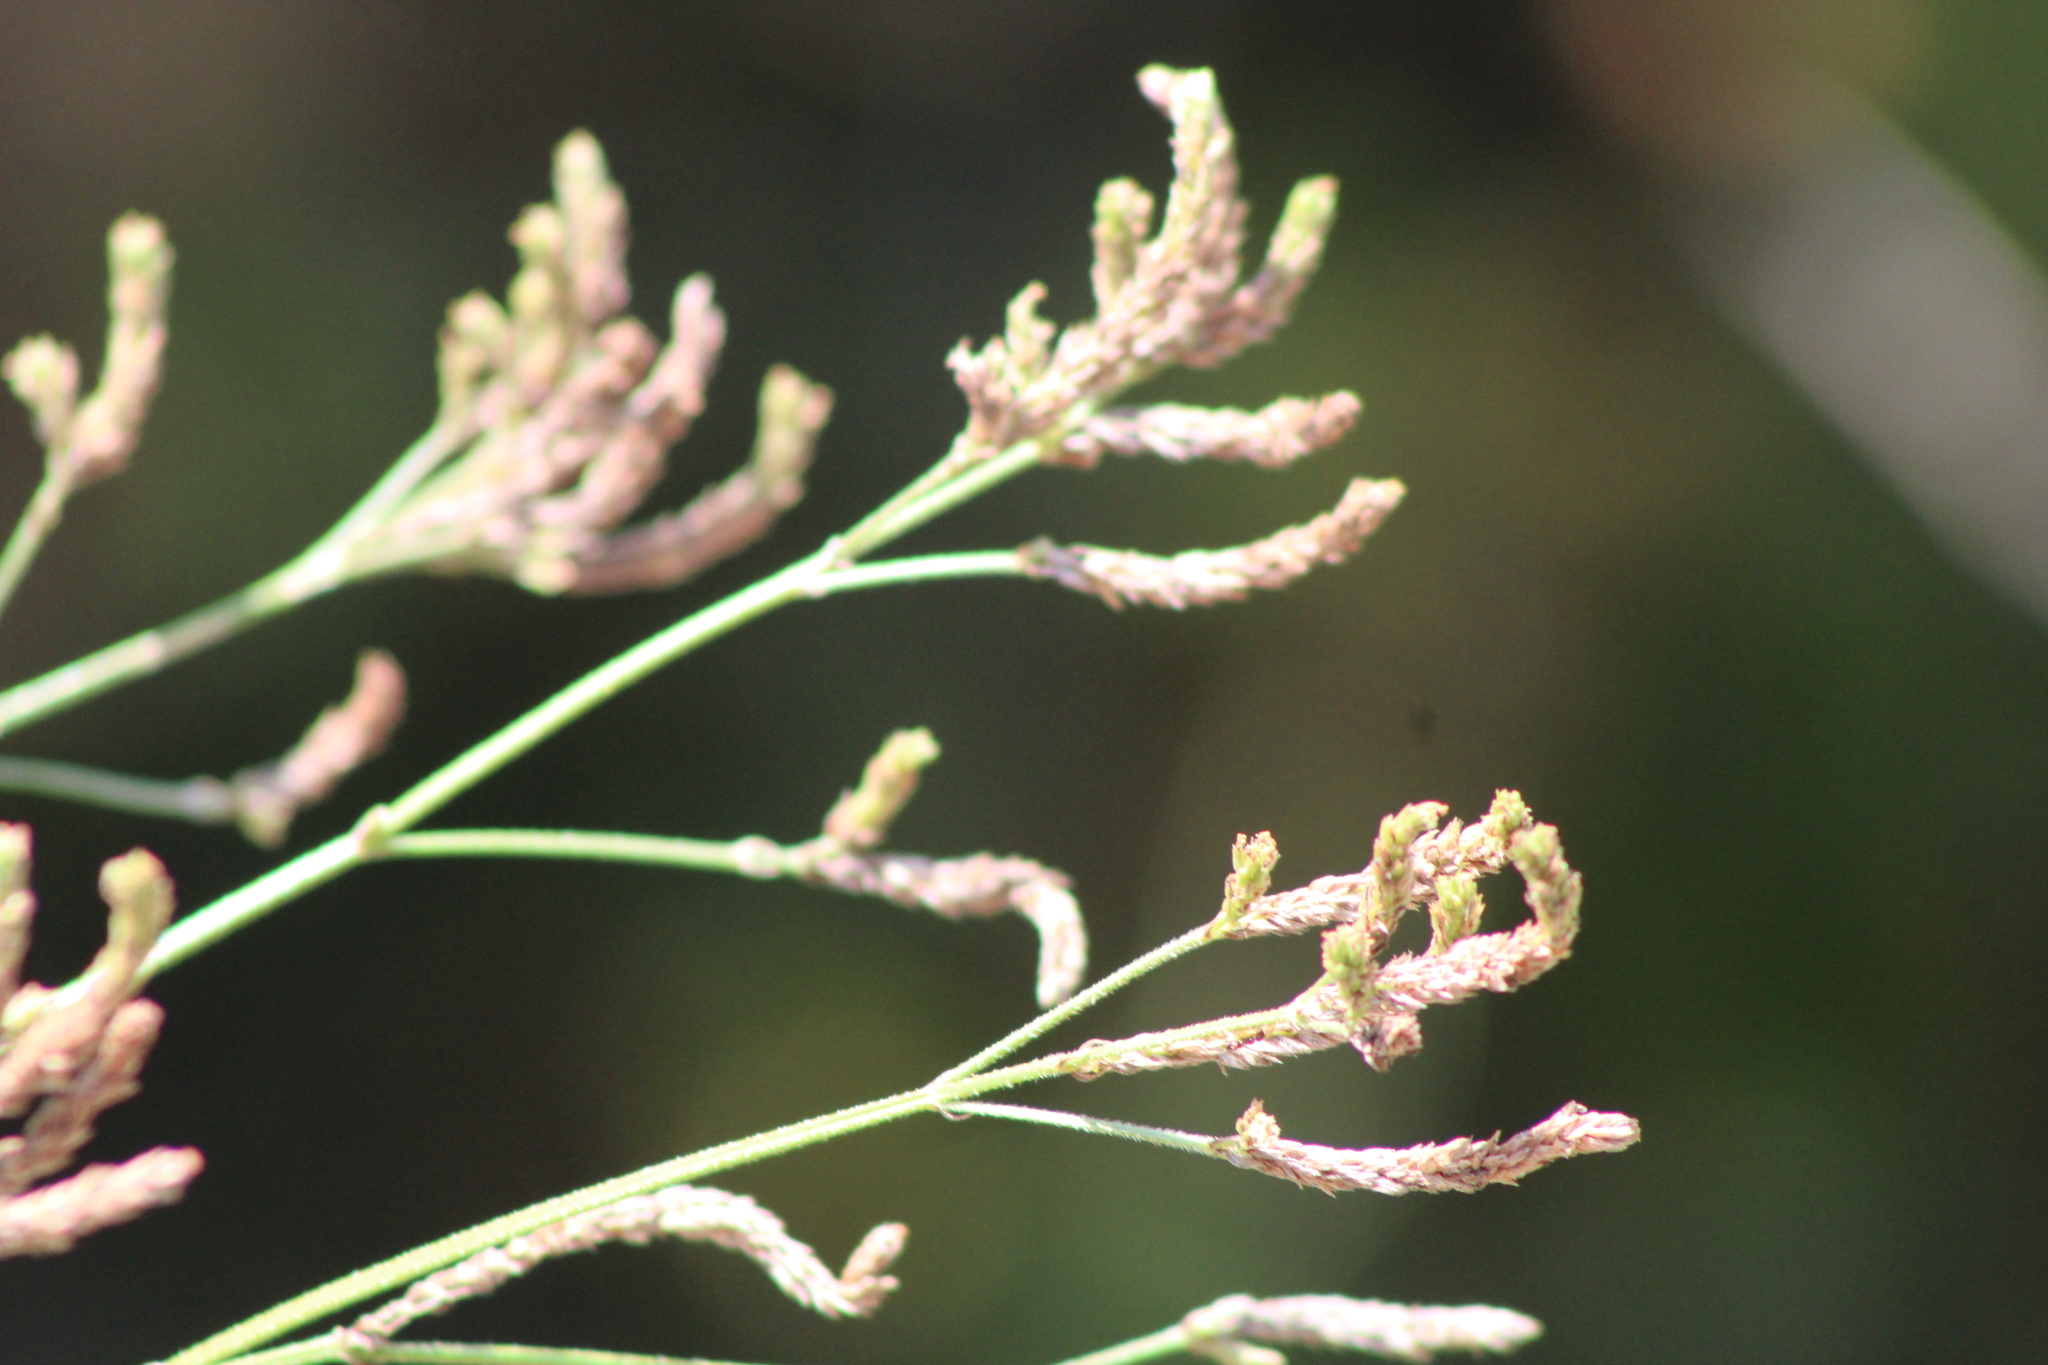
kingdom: Plantae
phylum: Tracheophyta
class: Magnoliopsida
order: Lamiales
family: Verbenaceae
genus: Verbena
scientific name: Verbena brasiliensis
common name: Brazilian vervain
